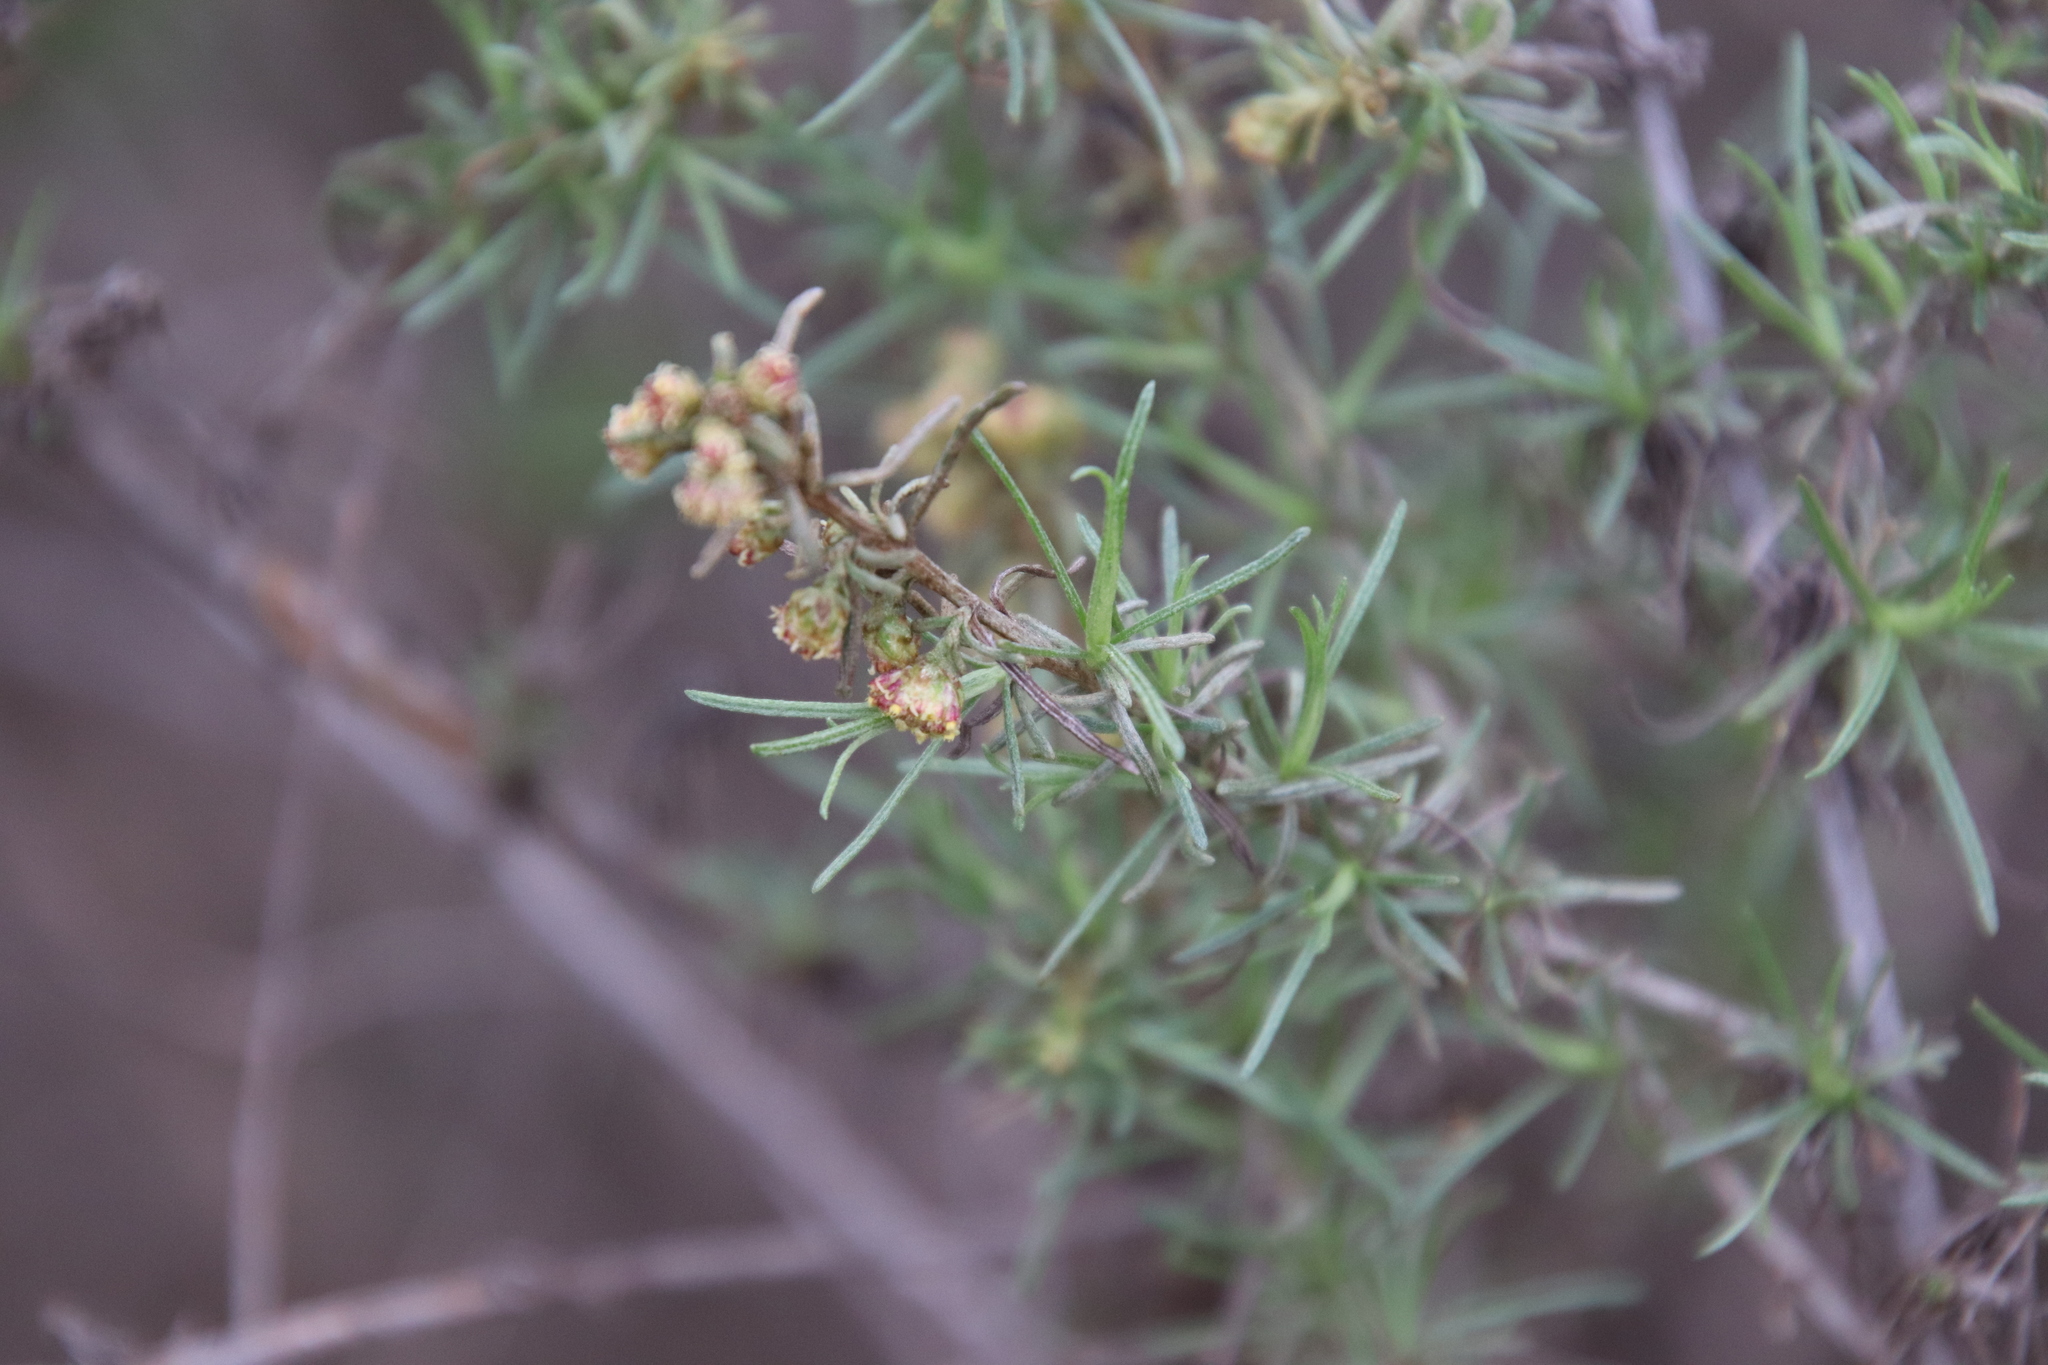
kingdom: Plantae
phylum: Tracheophyta
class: Magnoliopsida
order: Asterales
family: Asteraceae
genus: Artemisia
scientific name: Artemisia californica
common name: California sagebrush
